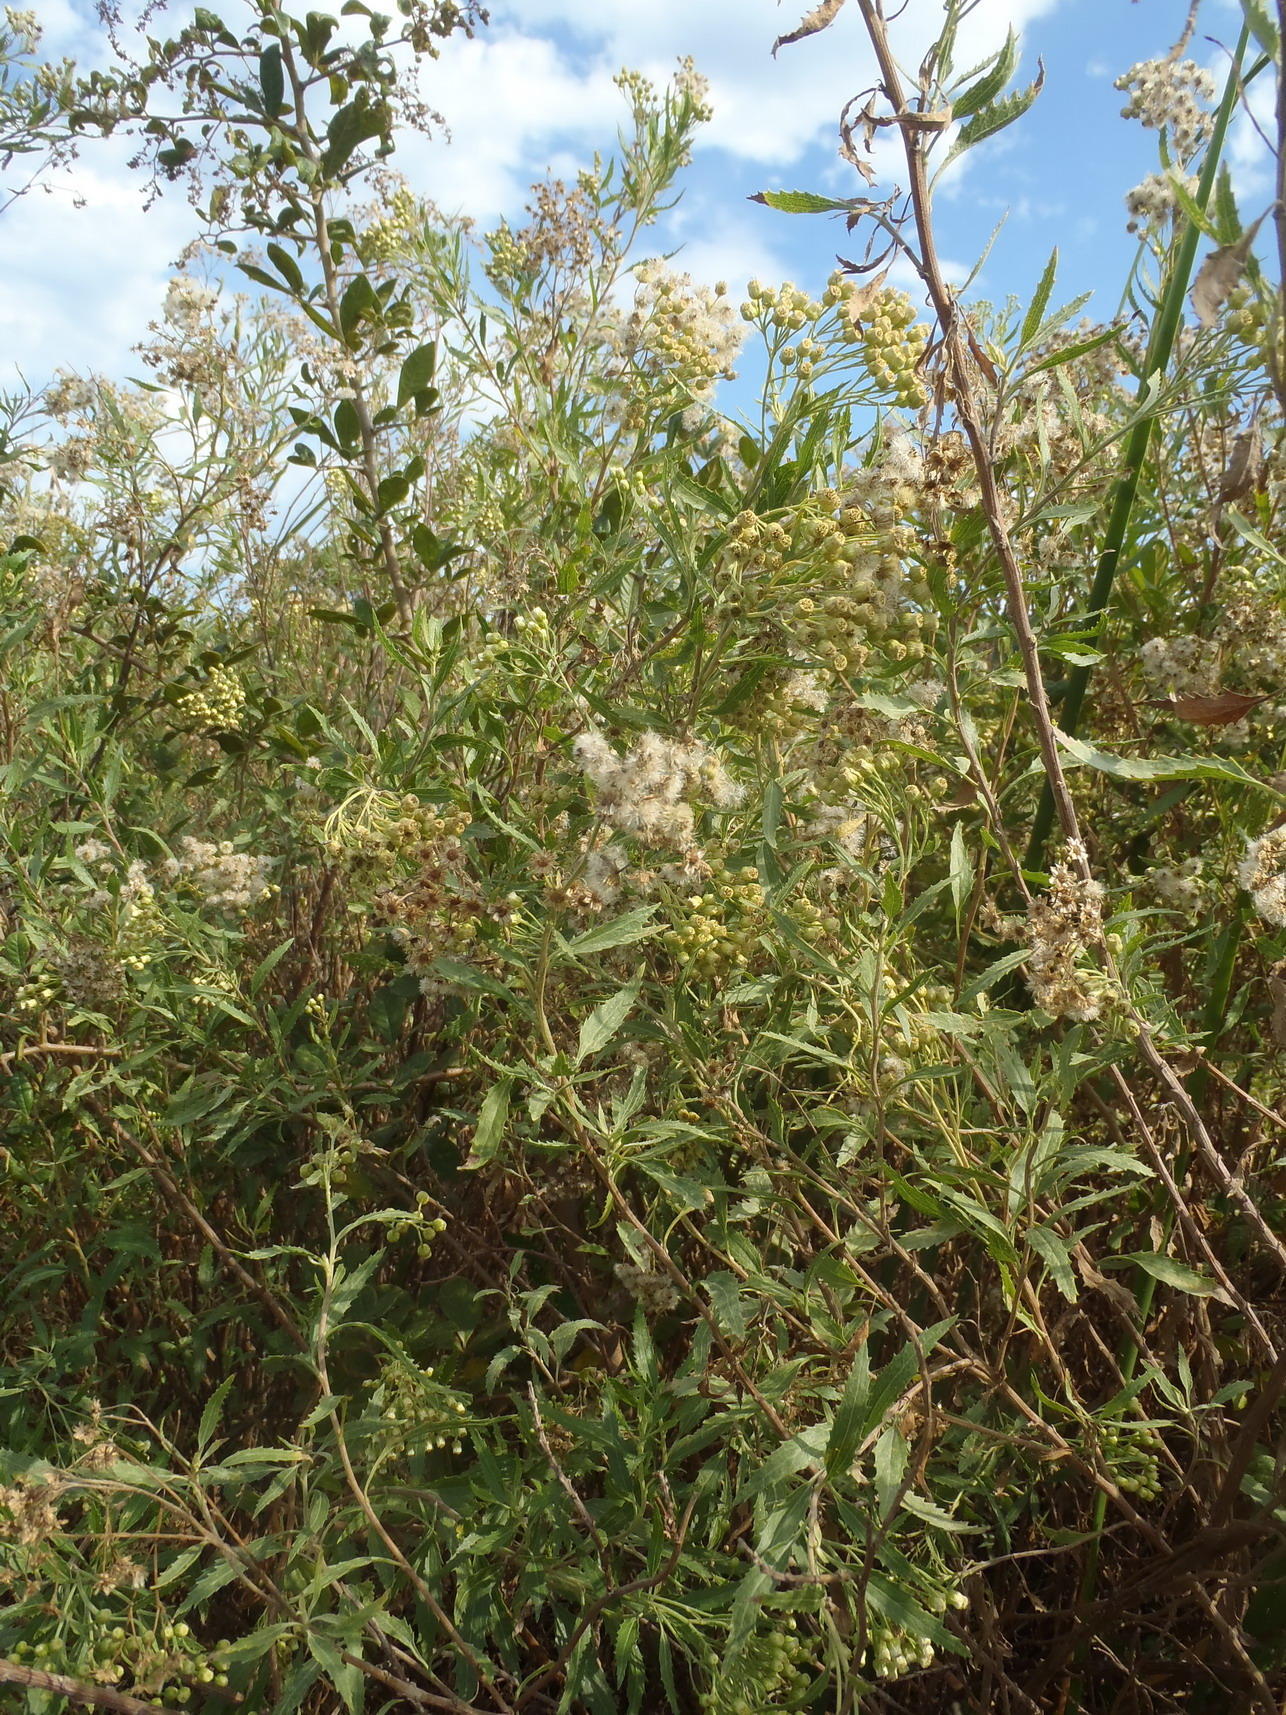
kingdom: Plantae
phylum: Tracheophyta
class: Magnoliopsida
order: Asterales
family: Asteraceae
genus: Nidorella
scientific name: Nidorella ivifolia
